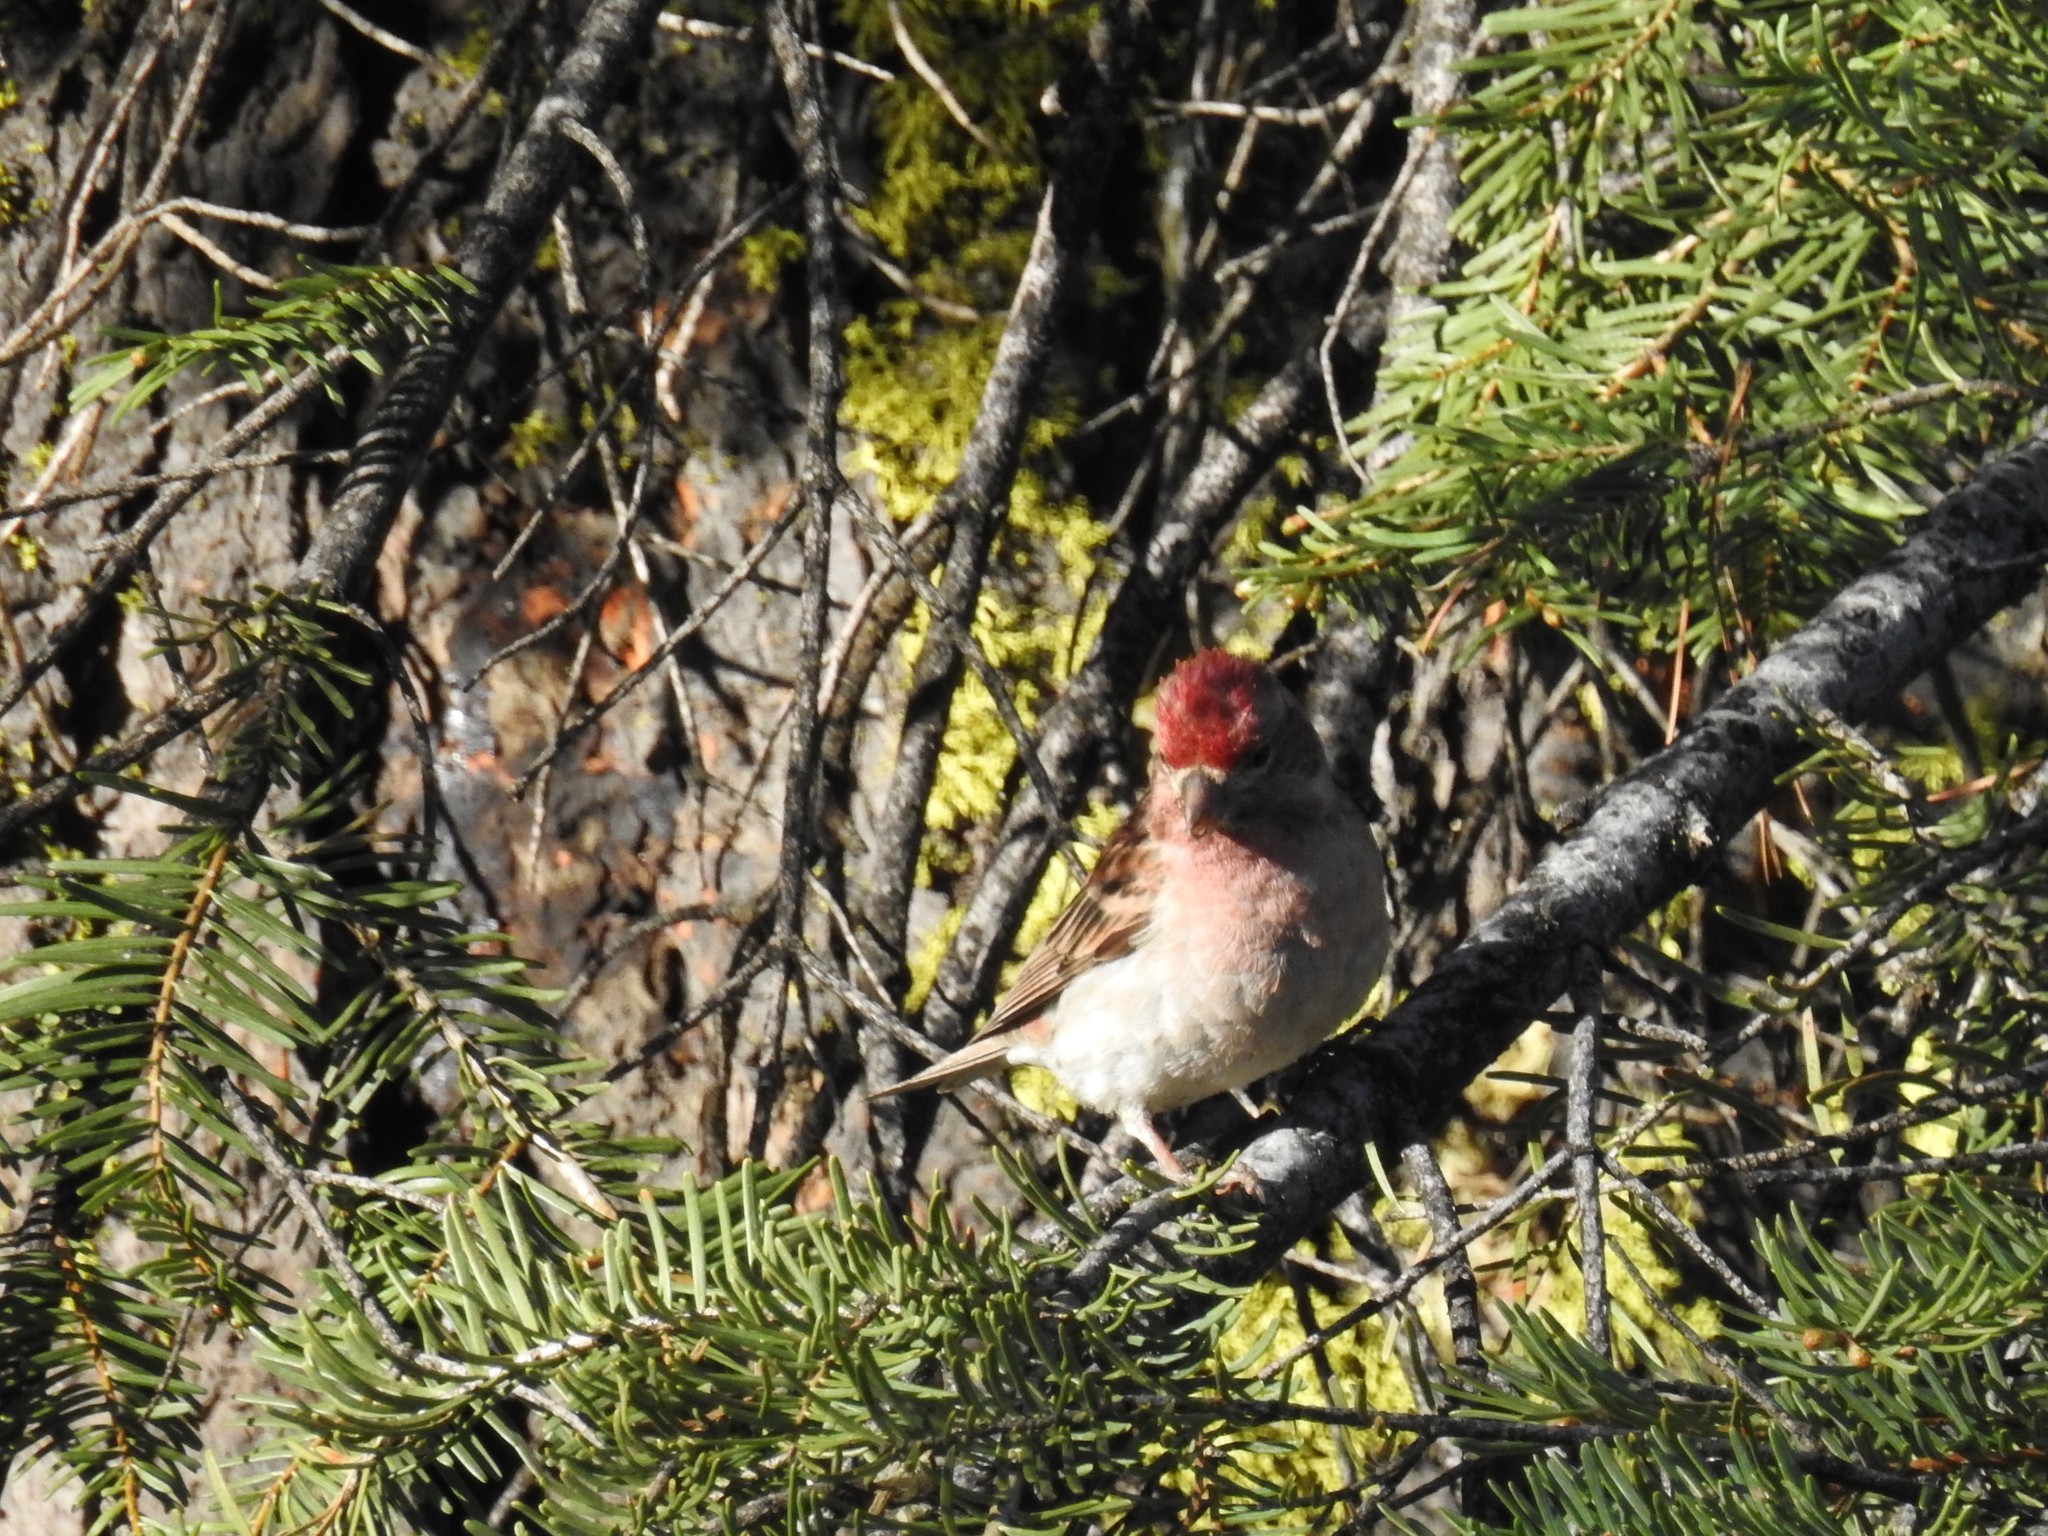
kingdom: Animalia
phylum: Chordata
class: Aves
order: Passeriformes
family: Fringillidae
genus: Haemorhous
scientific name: Haemorhous cassinii
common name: Cassin's finch
